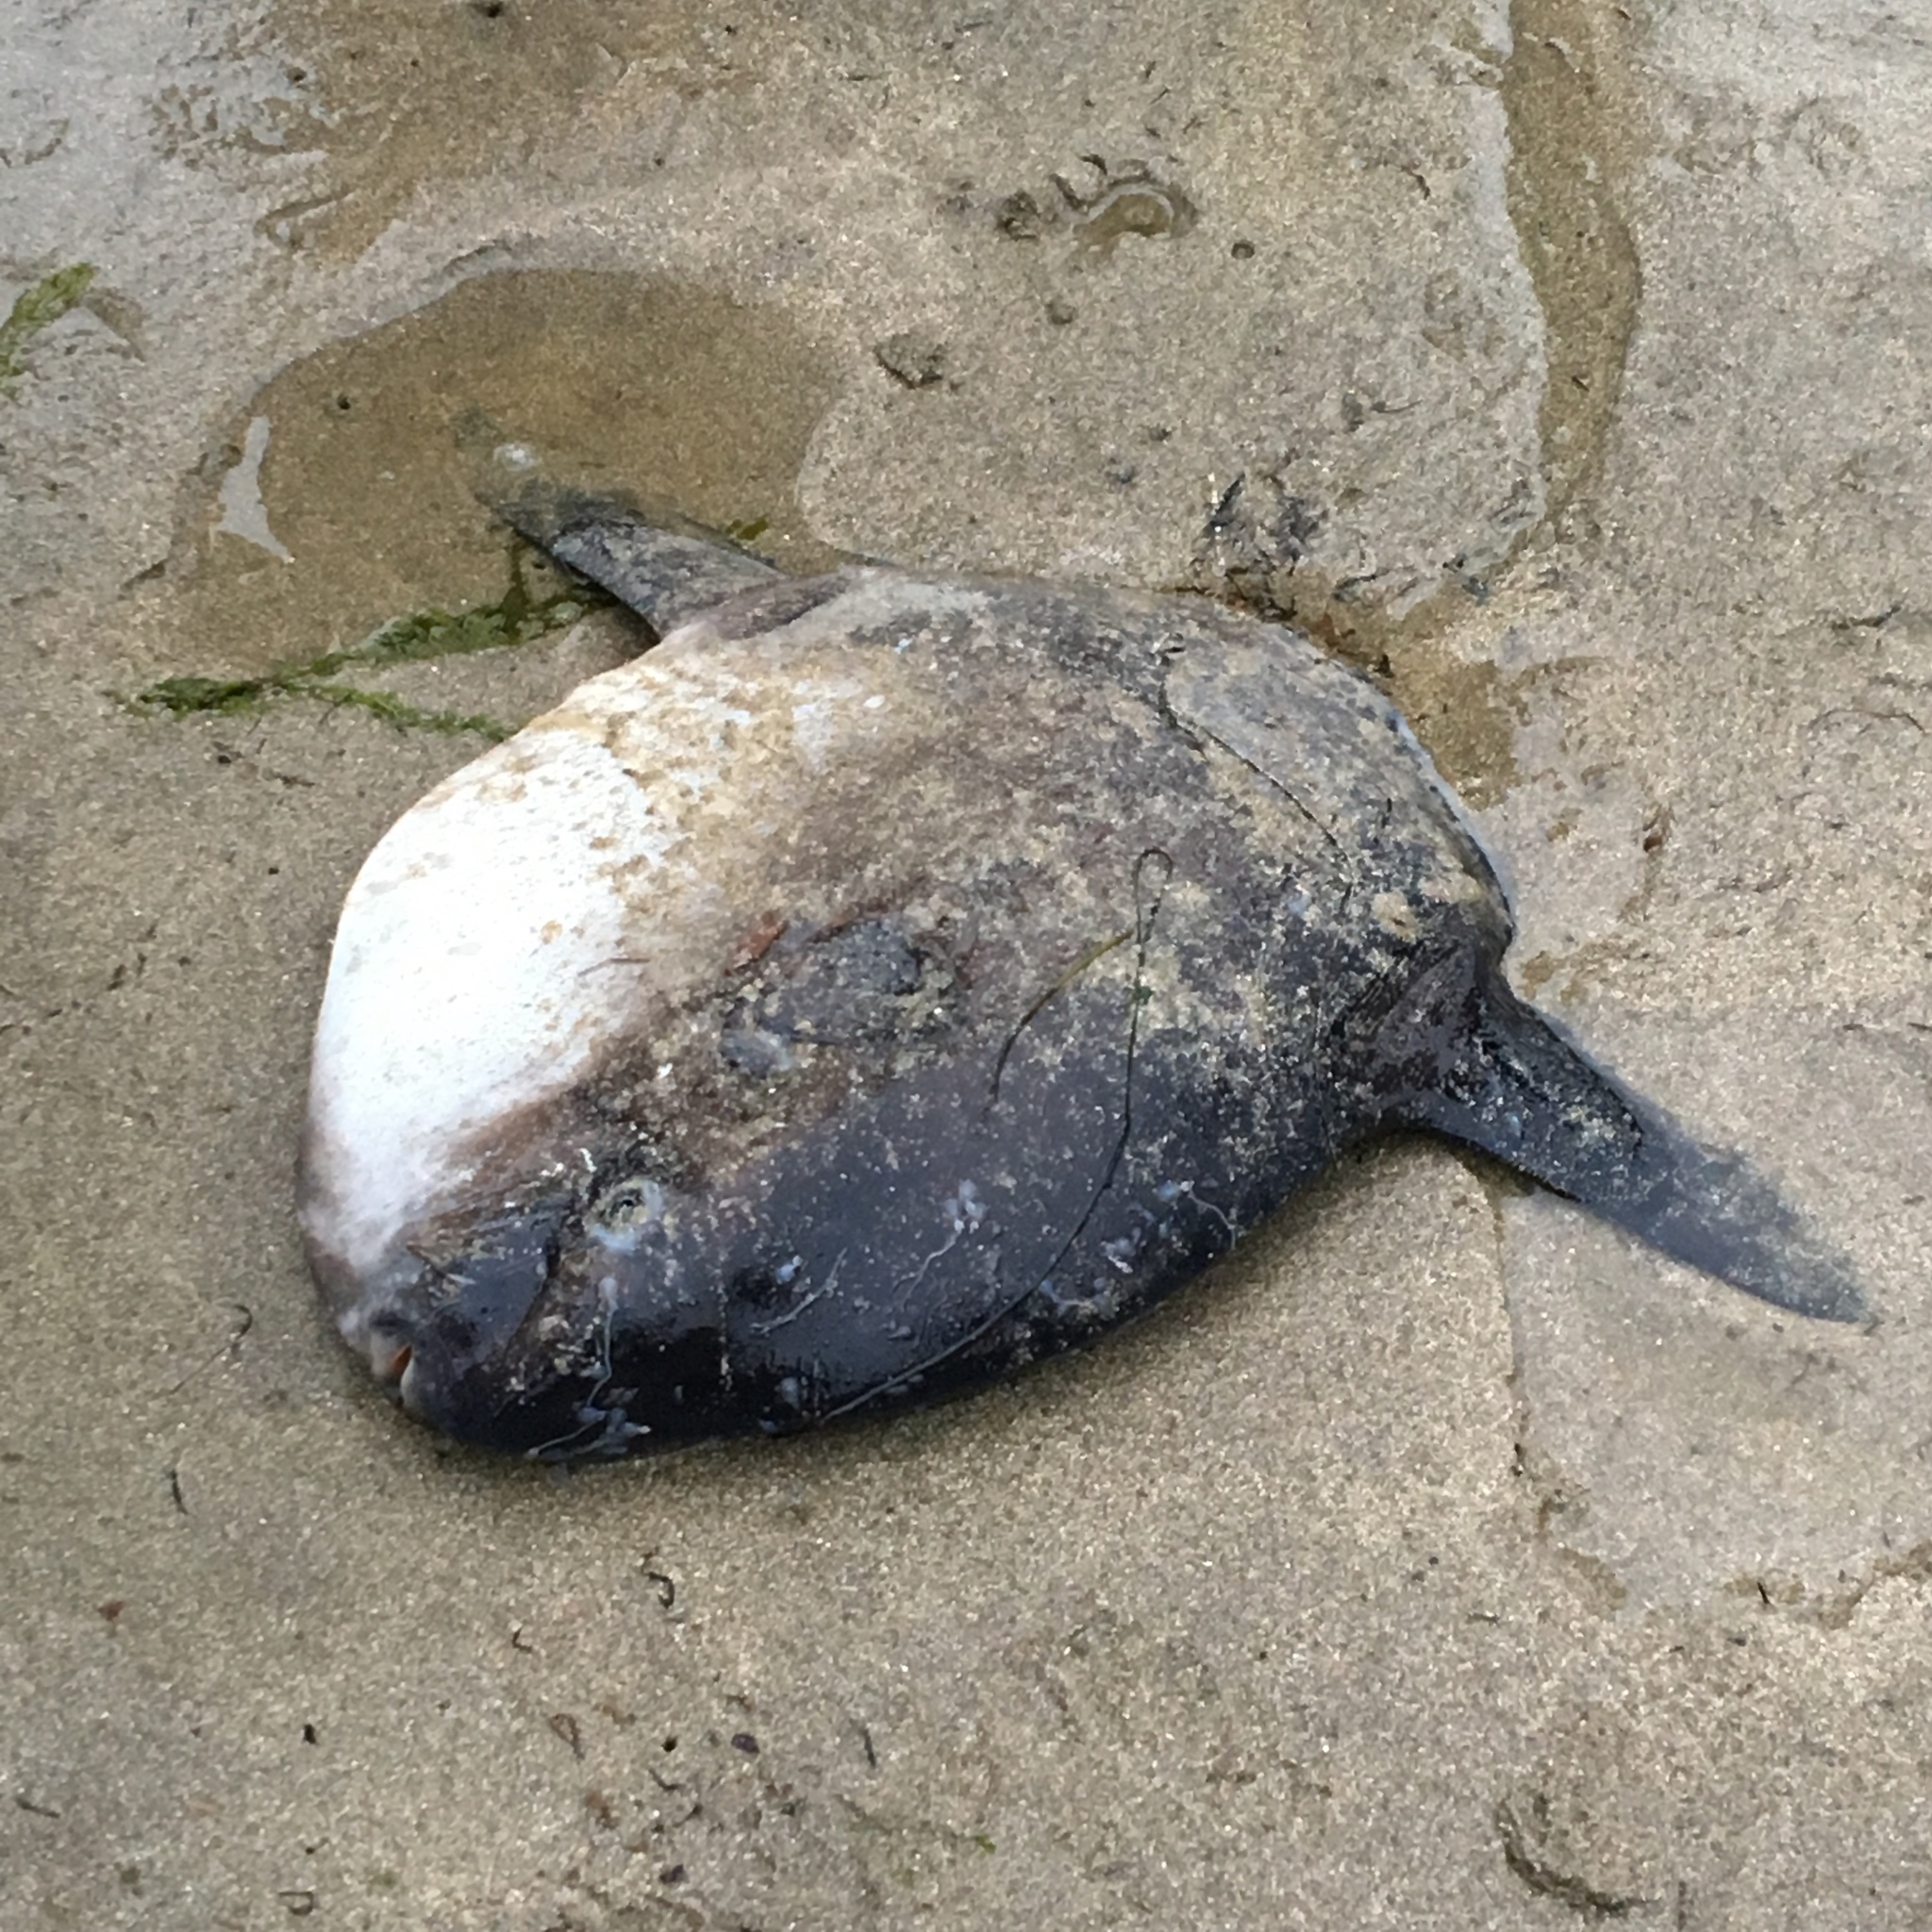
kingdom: Animalia
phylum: Chordata
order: Tetraodontiformes
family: Molidae
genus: Mola
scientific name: Mola mola
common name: Ocean sunfish
